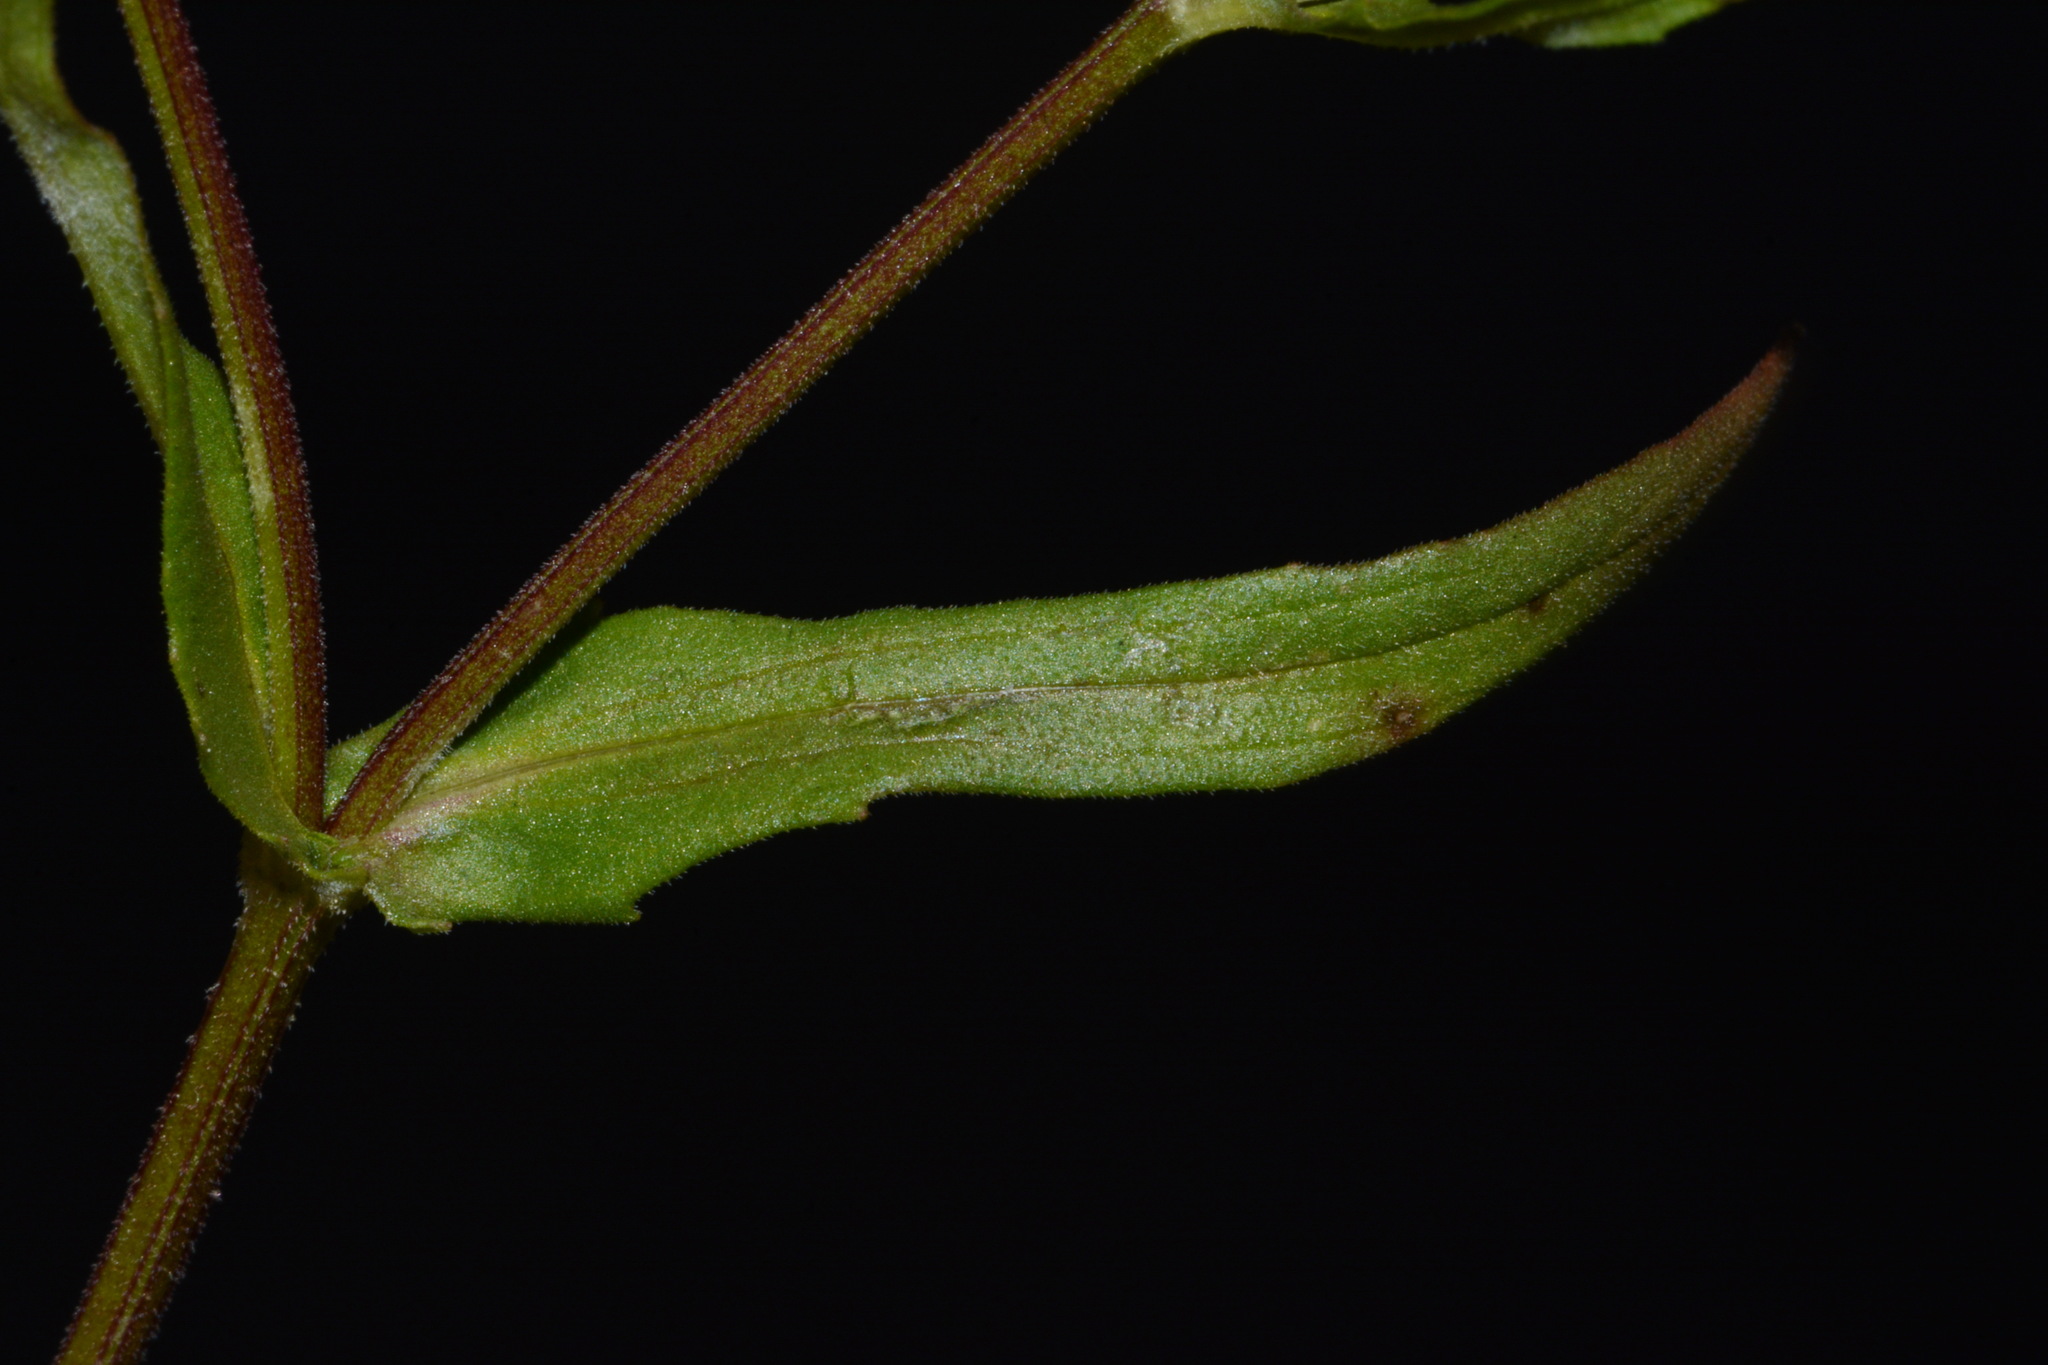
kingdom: Plantae
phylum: Tracheophyta
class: Magnoliopsida
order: Dipsacales
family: Caprifoliaceae
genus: Valerianella
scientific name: Valerianella dentata
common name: Narrow-fruited cornsalad
